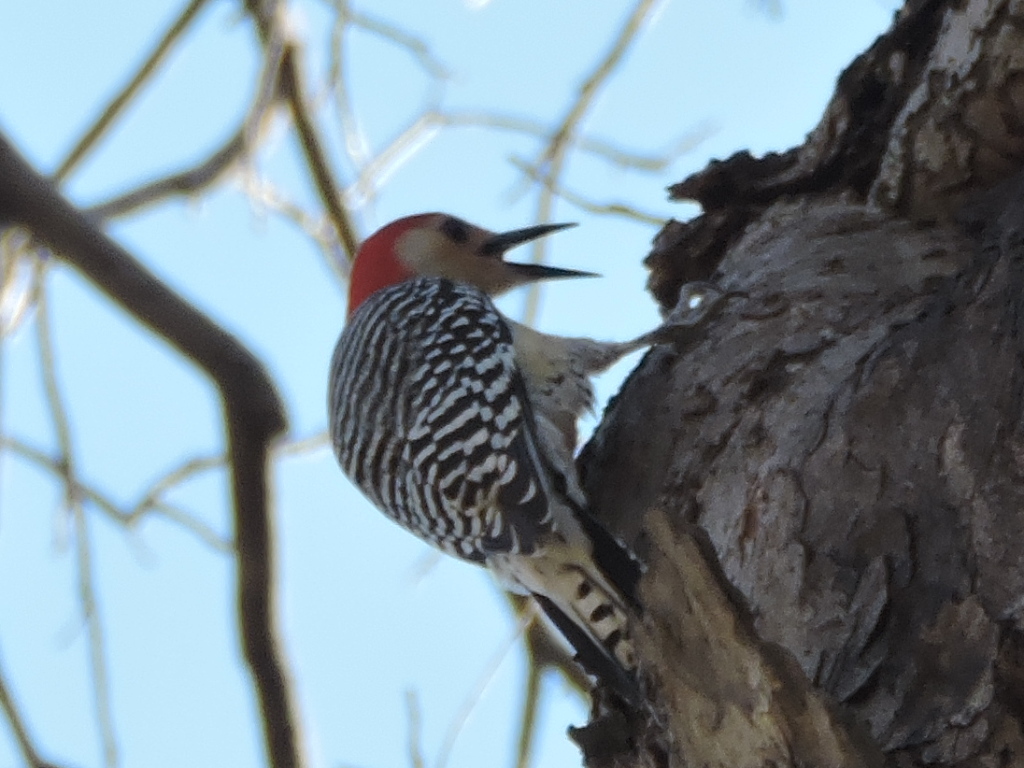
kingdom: Animalia
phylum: Chordata
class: Aves
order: Piciformes
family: Picidae
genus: Melanerpes
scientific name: Melanerpes carolinus
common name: Red-bellied woodpecker
